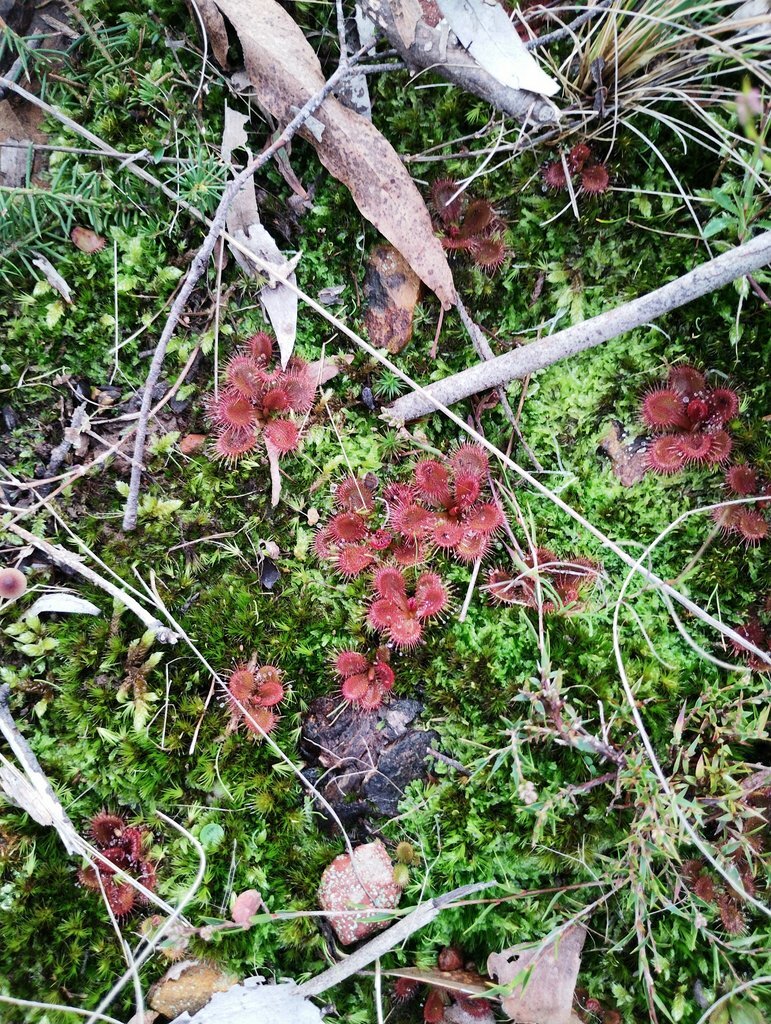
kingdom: Plantae
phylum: Tracheophyta
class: Magnoliopsida
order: Caryophyllales
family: Droseraceae
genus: Drosera
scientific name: Drosera aberrans
